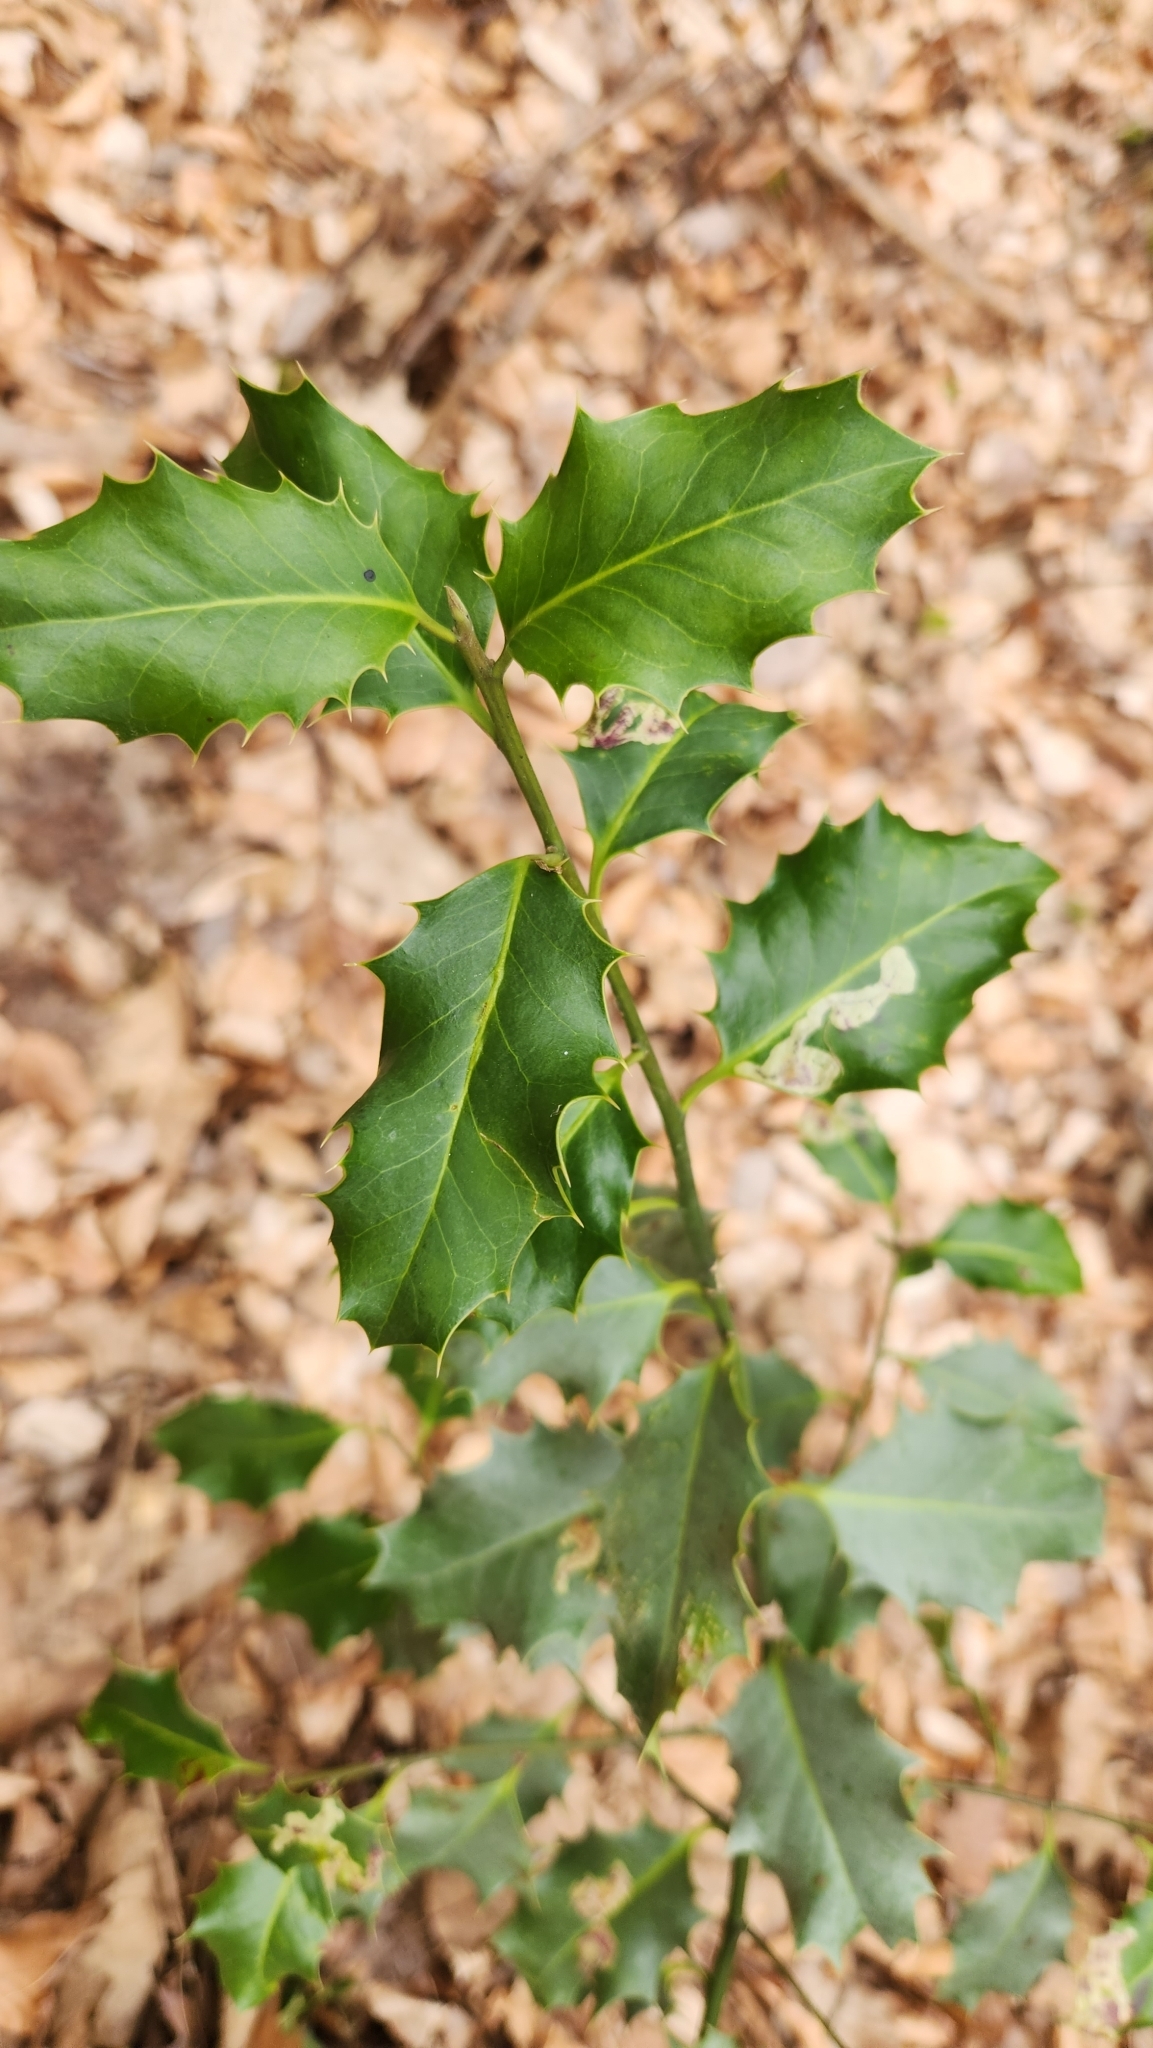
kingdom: Plantae
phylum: Tracheophyta
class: Magnoliopsida
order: Aquifoliales
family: Aquifoliaceae
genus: Ilex
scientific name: Ilex aquifolium
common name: English holly
